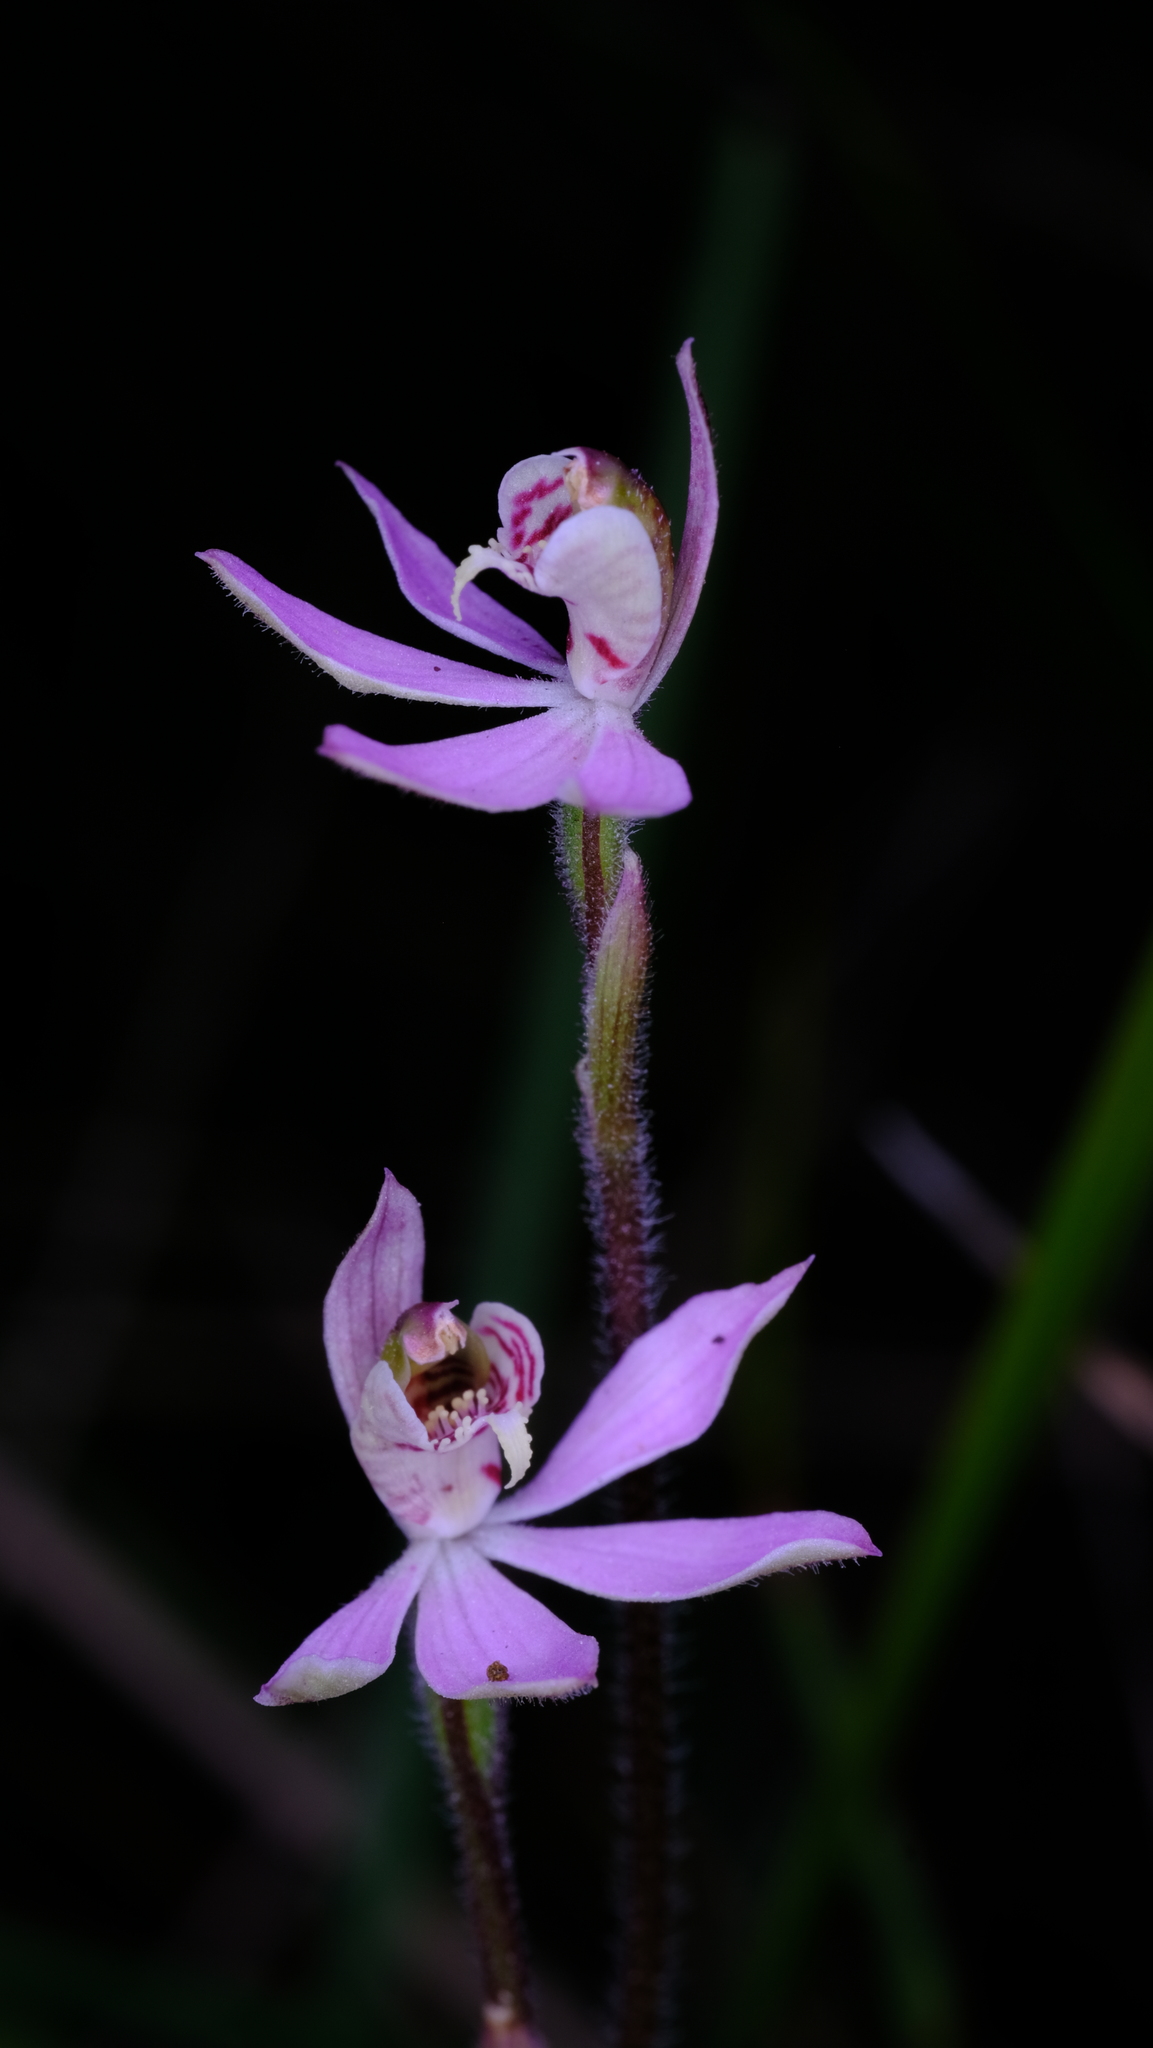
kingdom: Plantae
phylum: Tracheophyta
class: Liliopsida
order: Asparagales
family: Orchidaceae
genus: Caladenia
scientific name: Caladenia vulgaris
